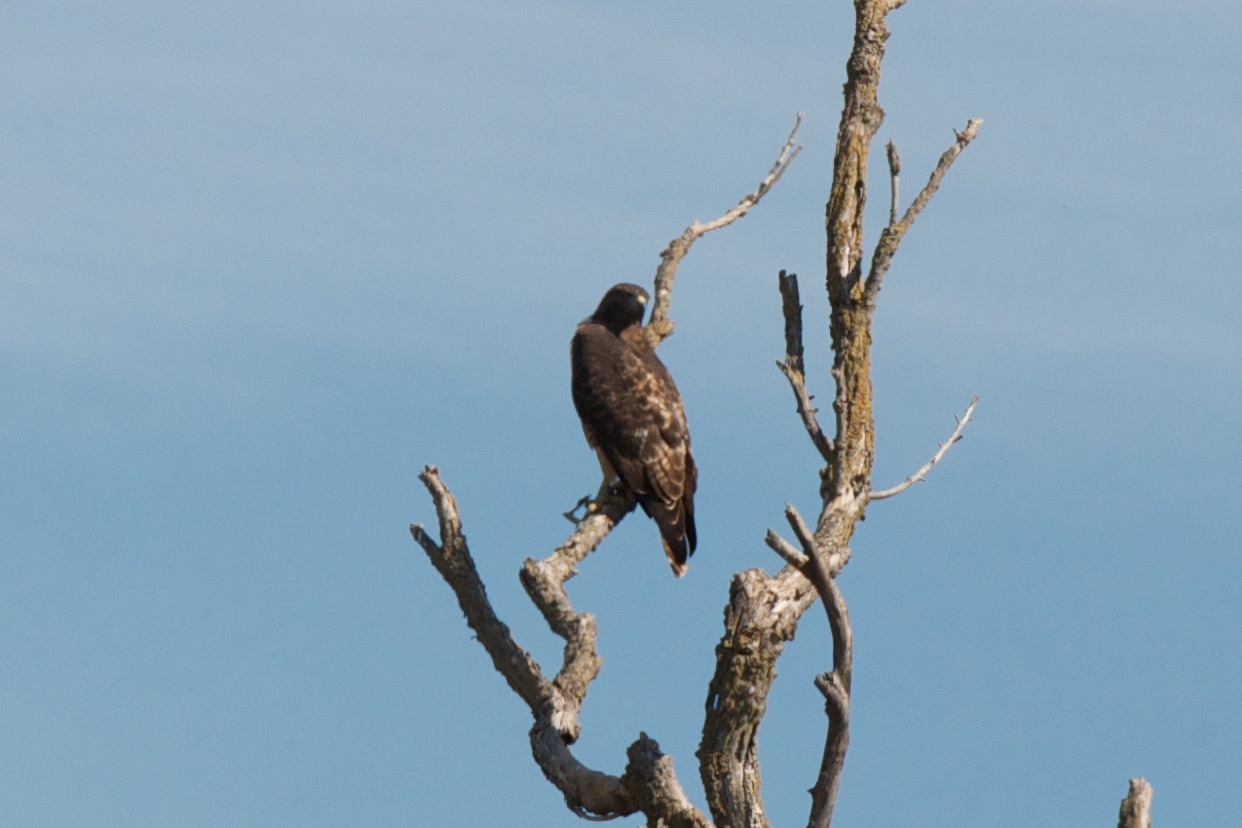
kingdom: Animalia
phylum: Chordata
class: Aves
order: Accipitriformes
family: Accipitridae
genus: Buteo
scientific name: Buteo jamaicensis
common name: Red-tailed hawk
